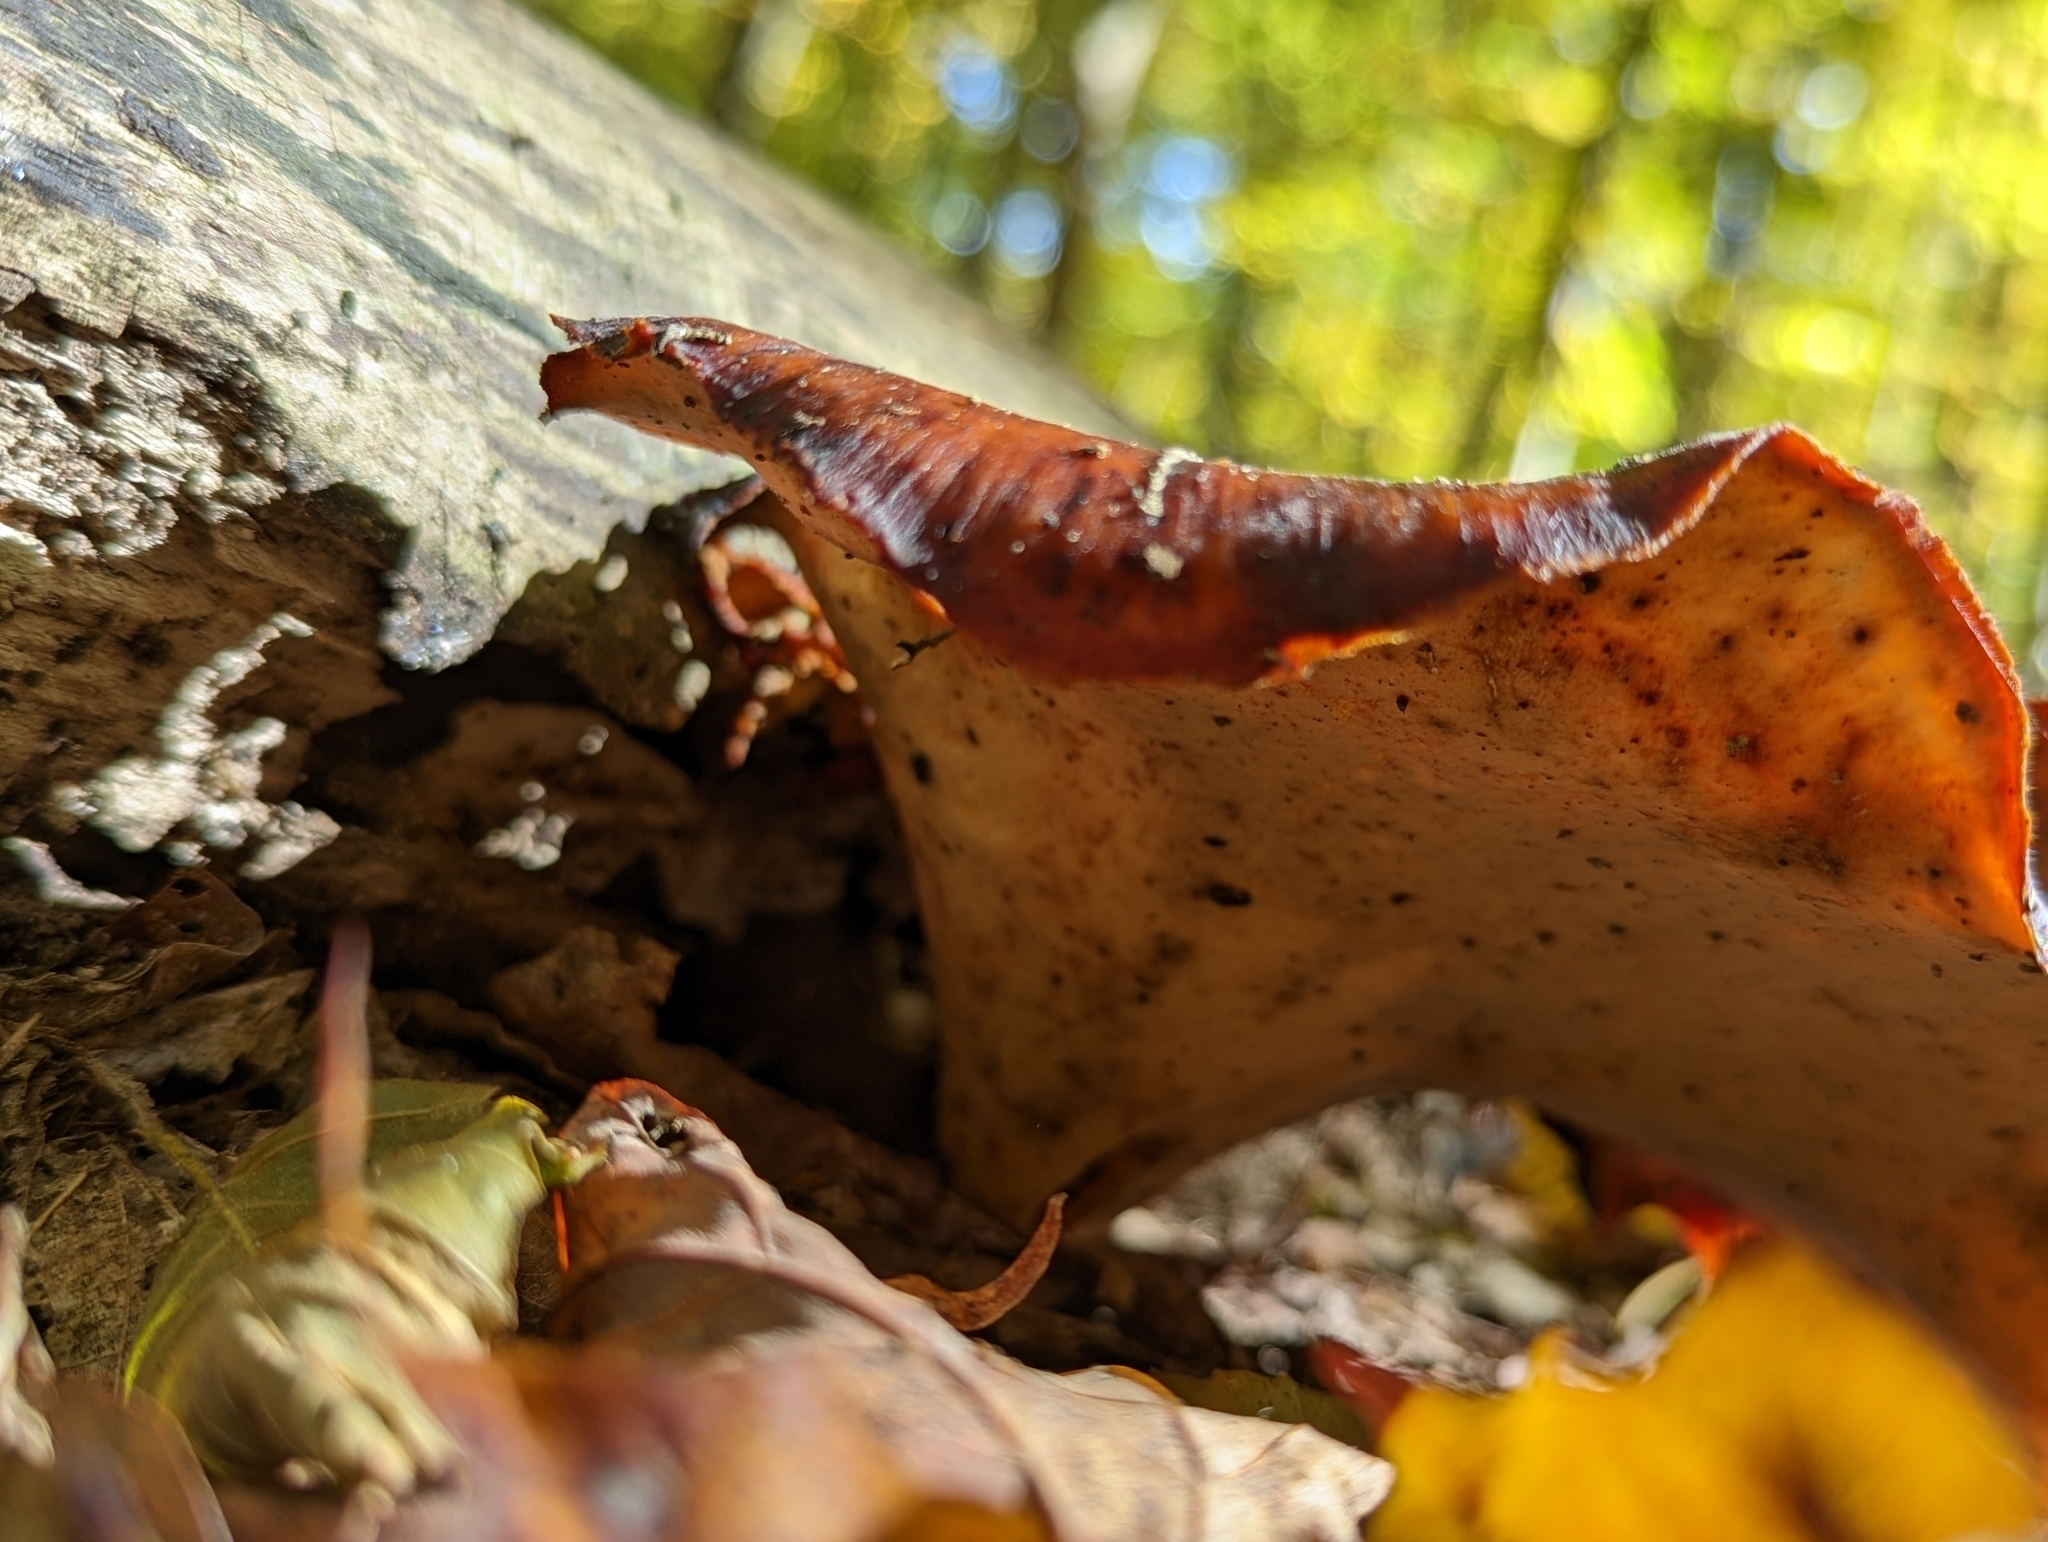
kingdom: Fungi
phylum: Basidiomycota
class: Agaricomycetes
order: Polyporales
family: Polyporaceae
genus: Picipes
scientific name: Picipes badius
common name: Bay polypore
